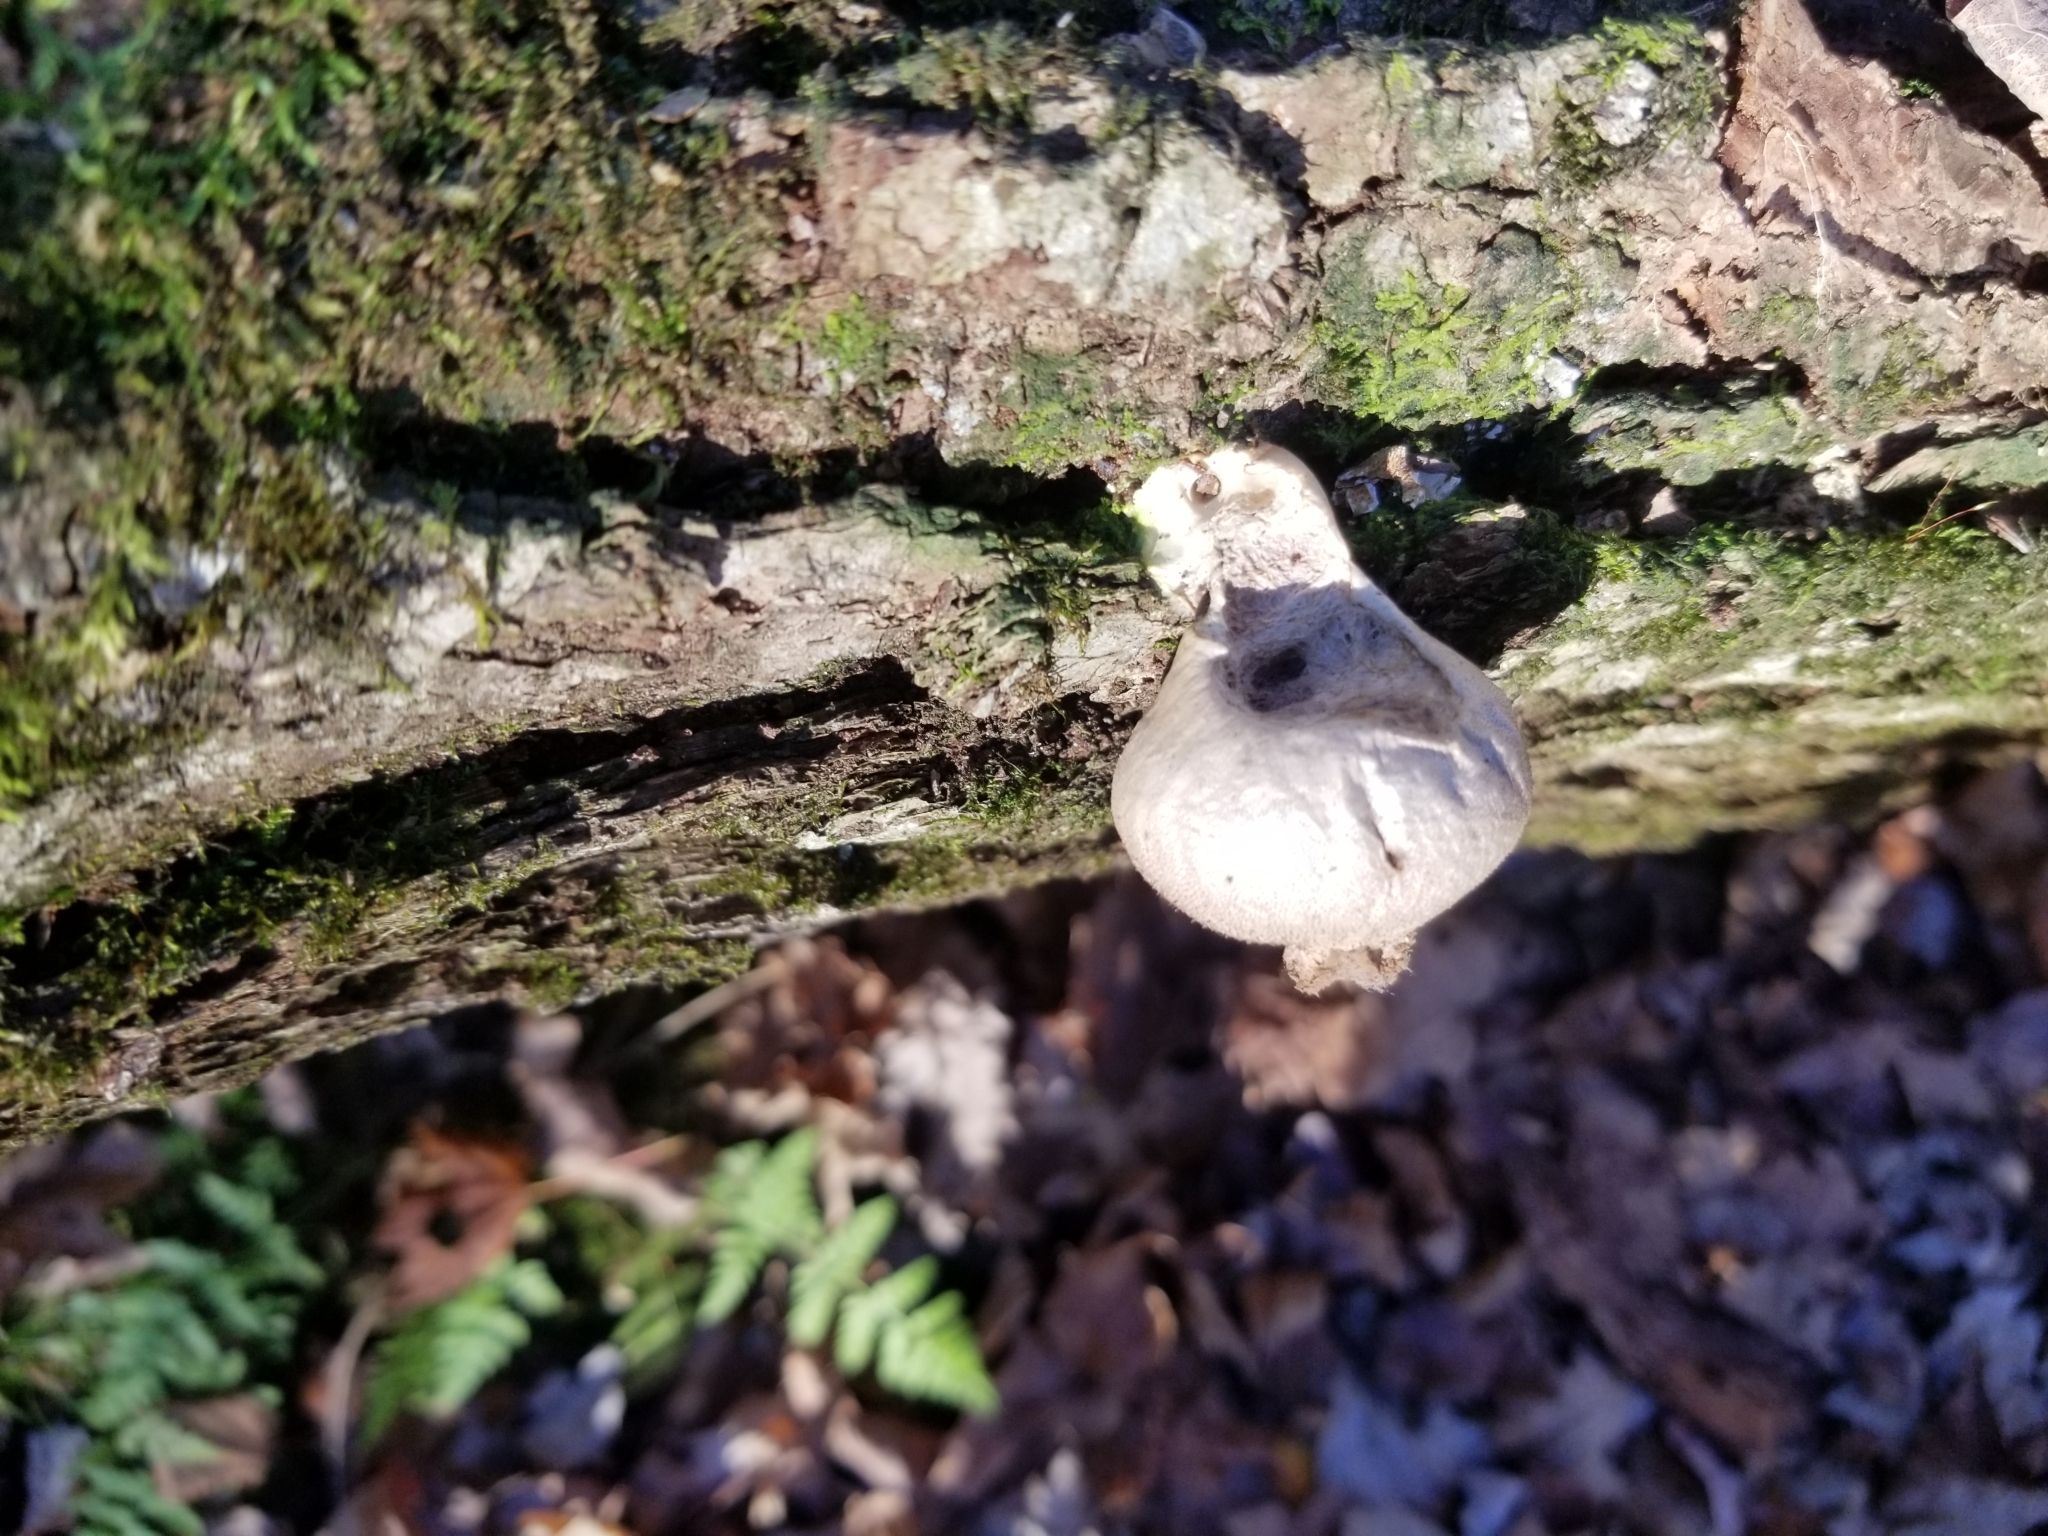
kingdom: Fungi
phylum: Basidiomycota
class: Agaricomycetes
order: Agaricales
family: Lycoperdaceae
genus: Apioperdon
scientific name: Apioperdon pyriforme
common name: Pear-shaped puffball
